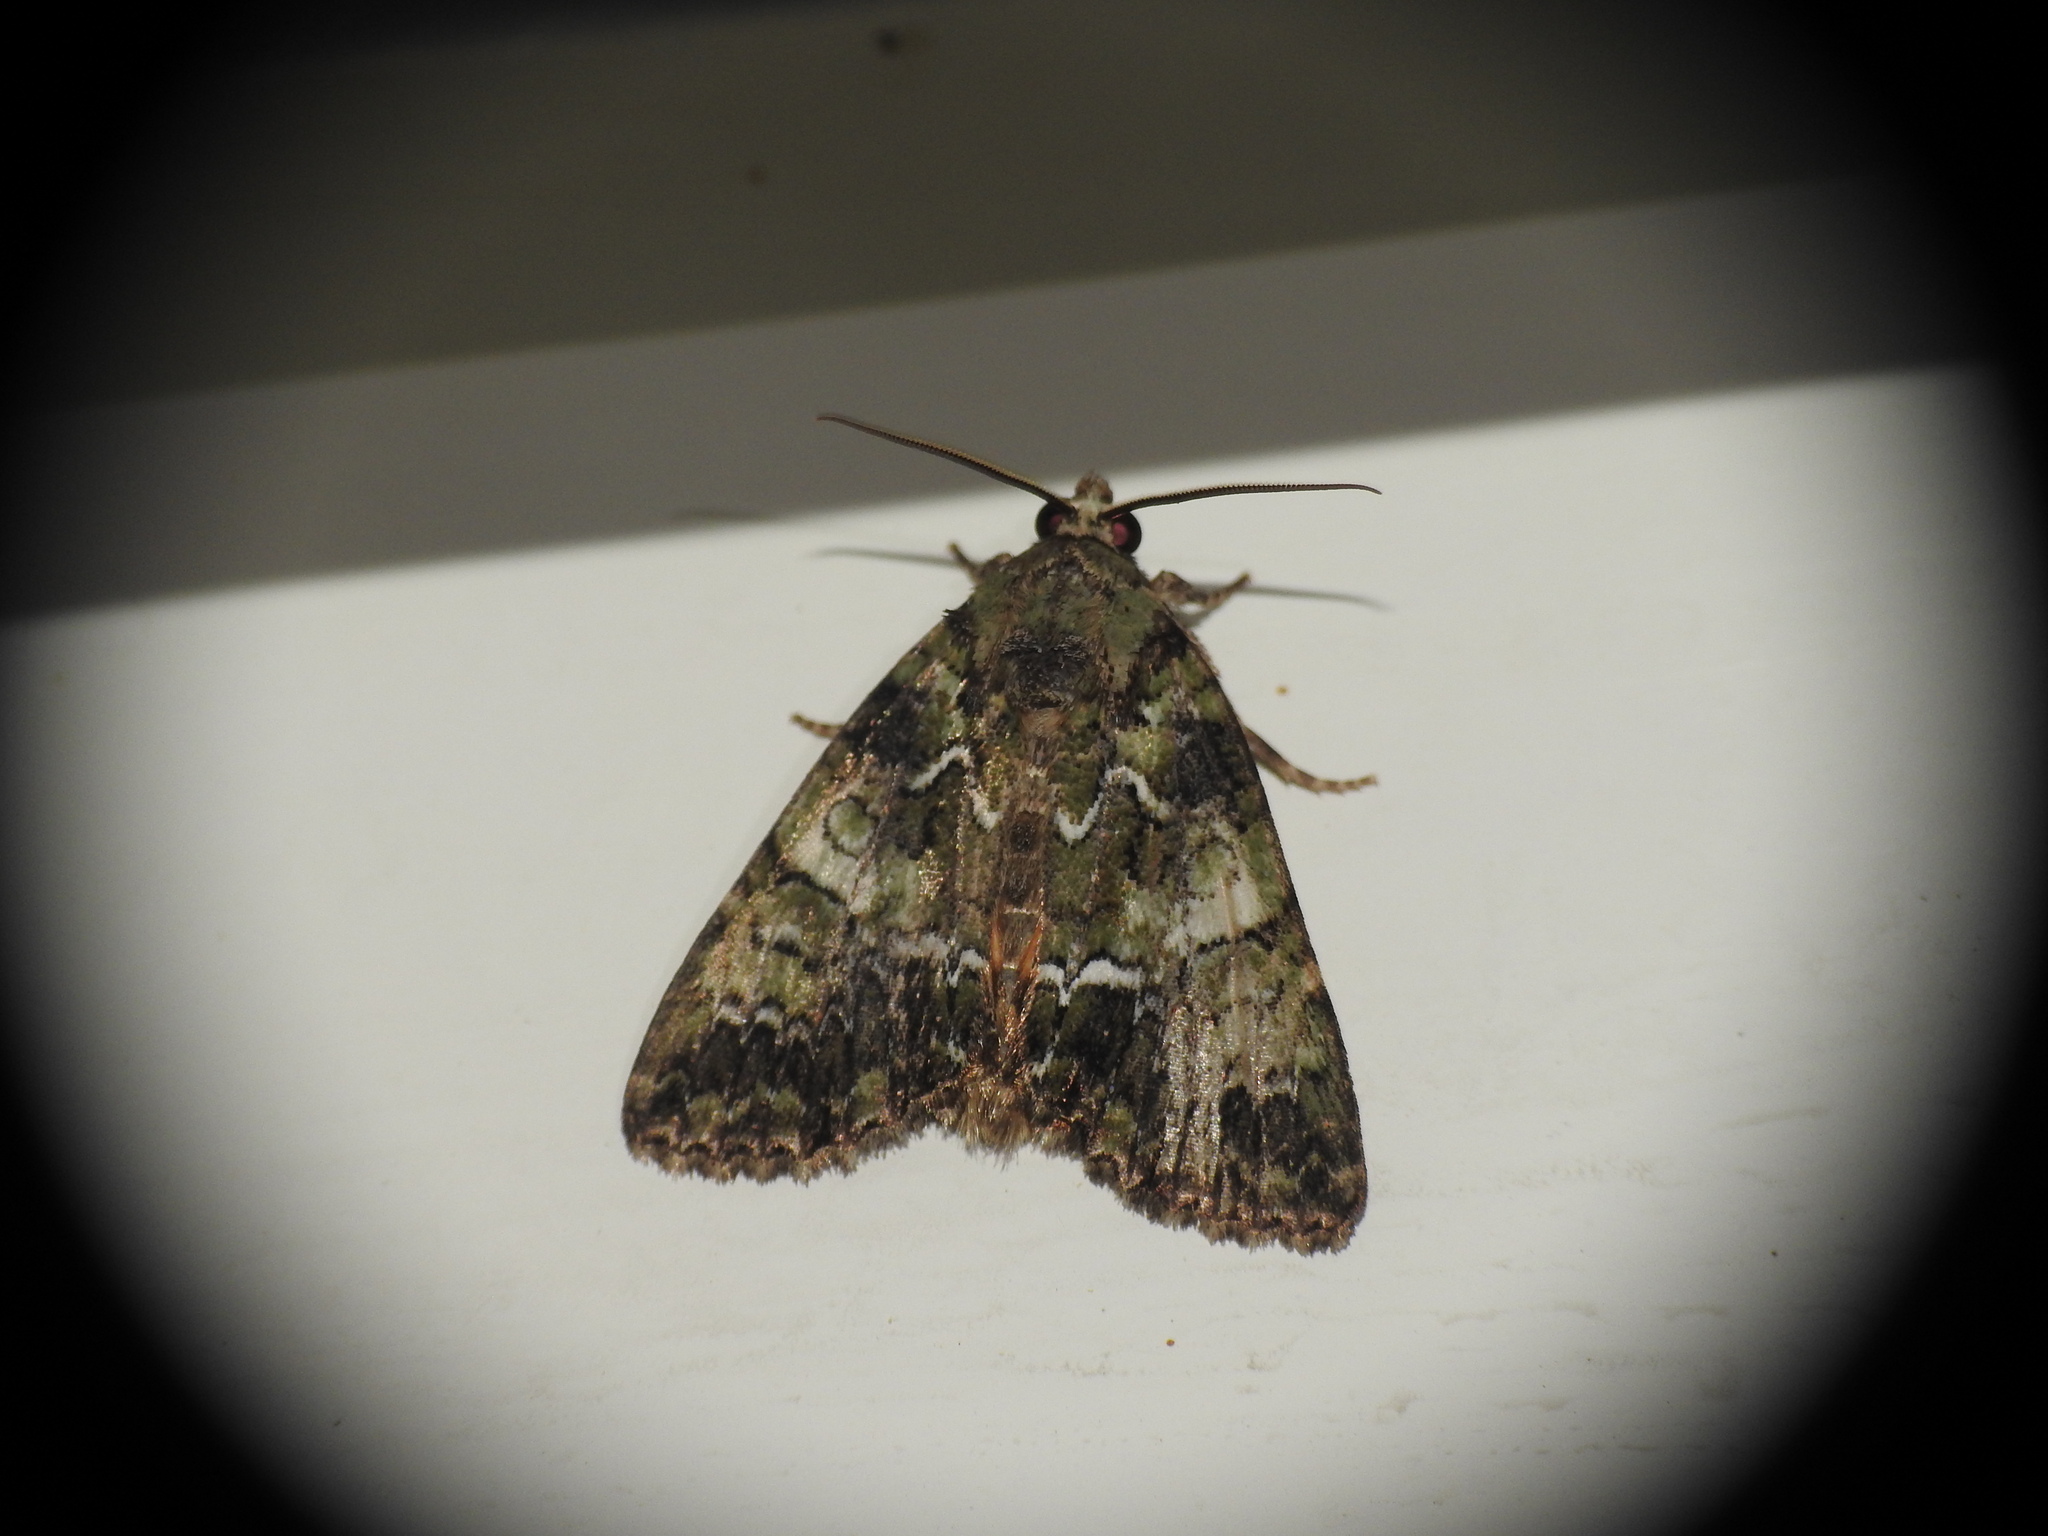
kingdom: Animalia
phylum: Arthropoda
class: Insecta
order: Lepidoptera
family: Noctuidae
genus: Polyphaenis
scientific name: Polyphaenis sericata
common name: Guernsey underwing
